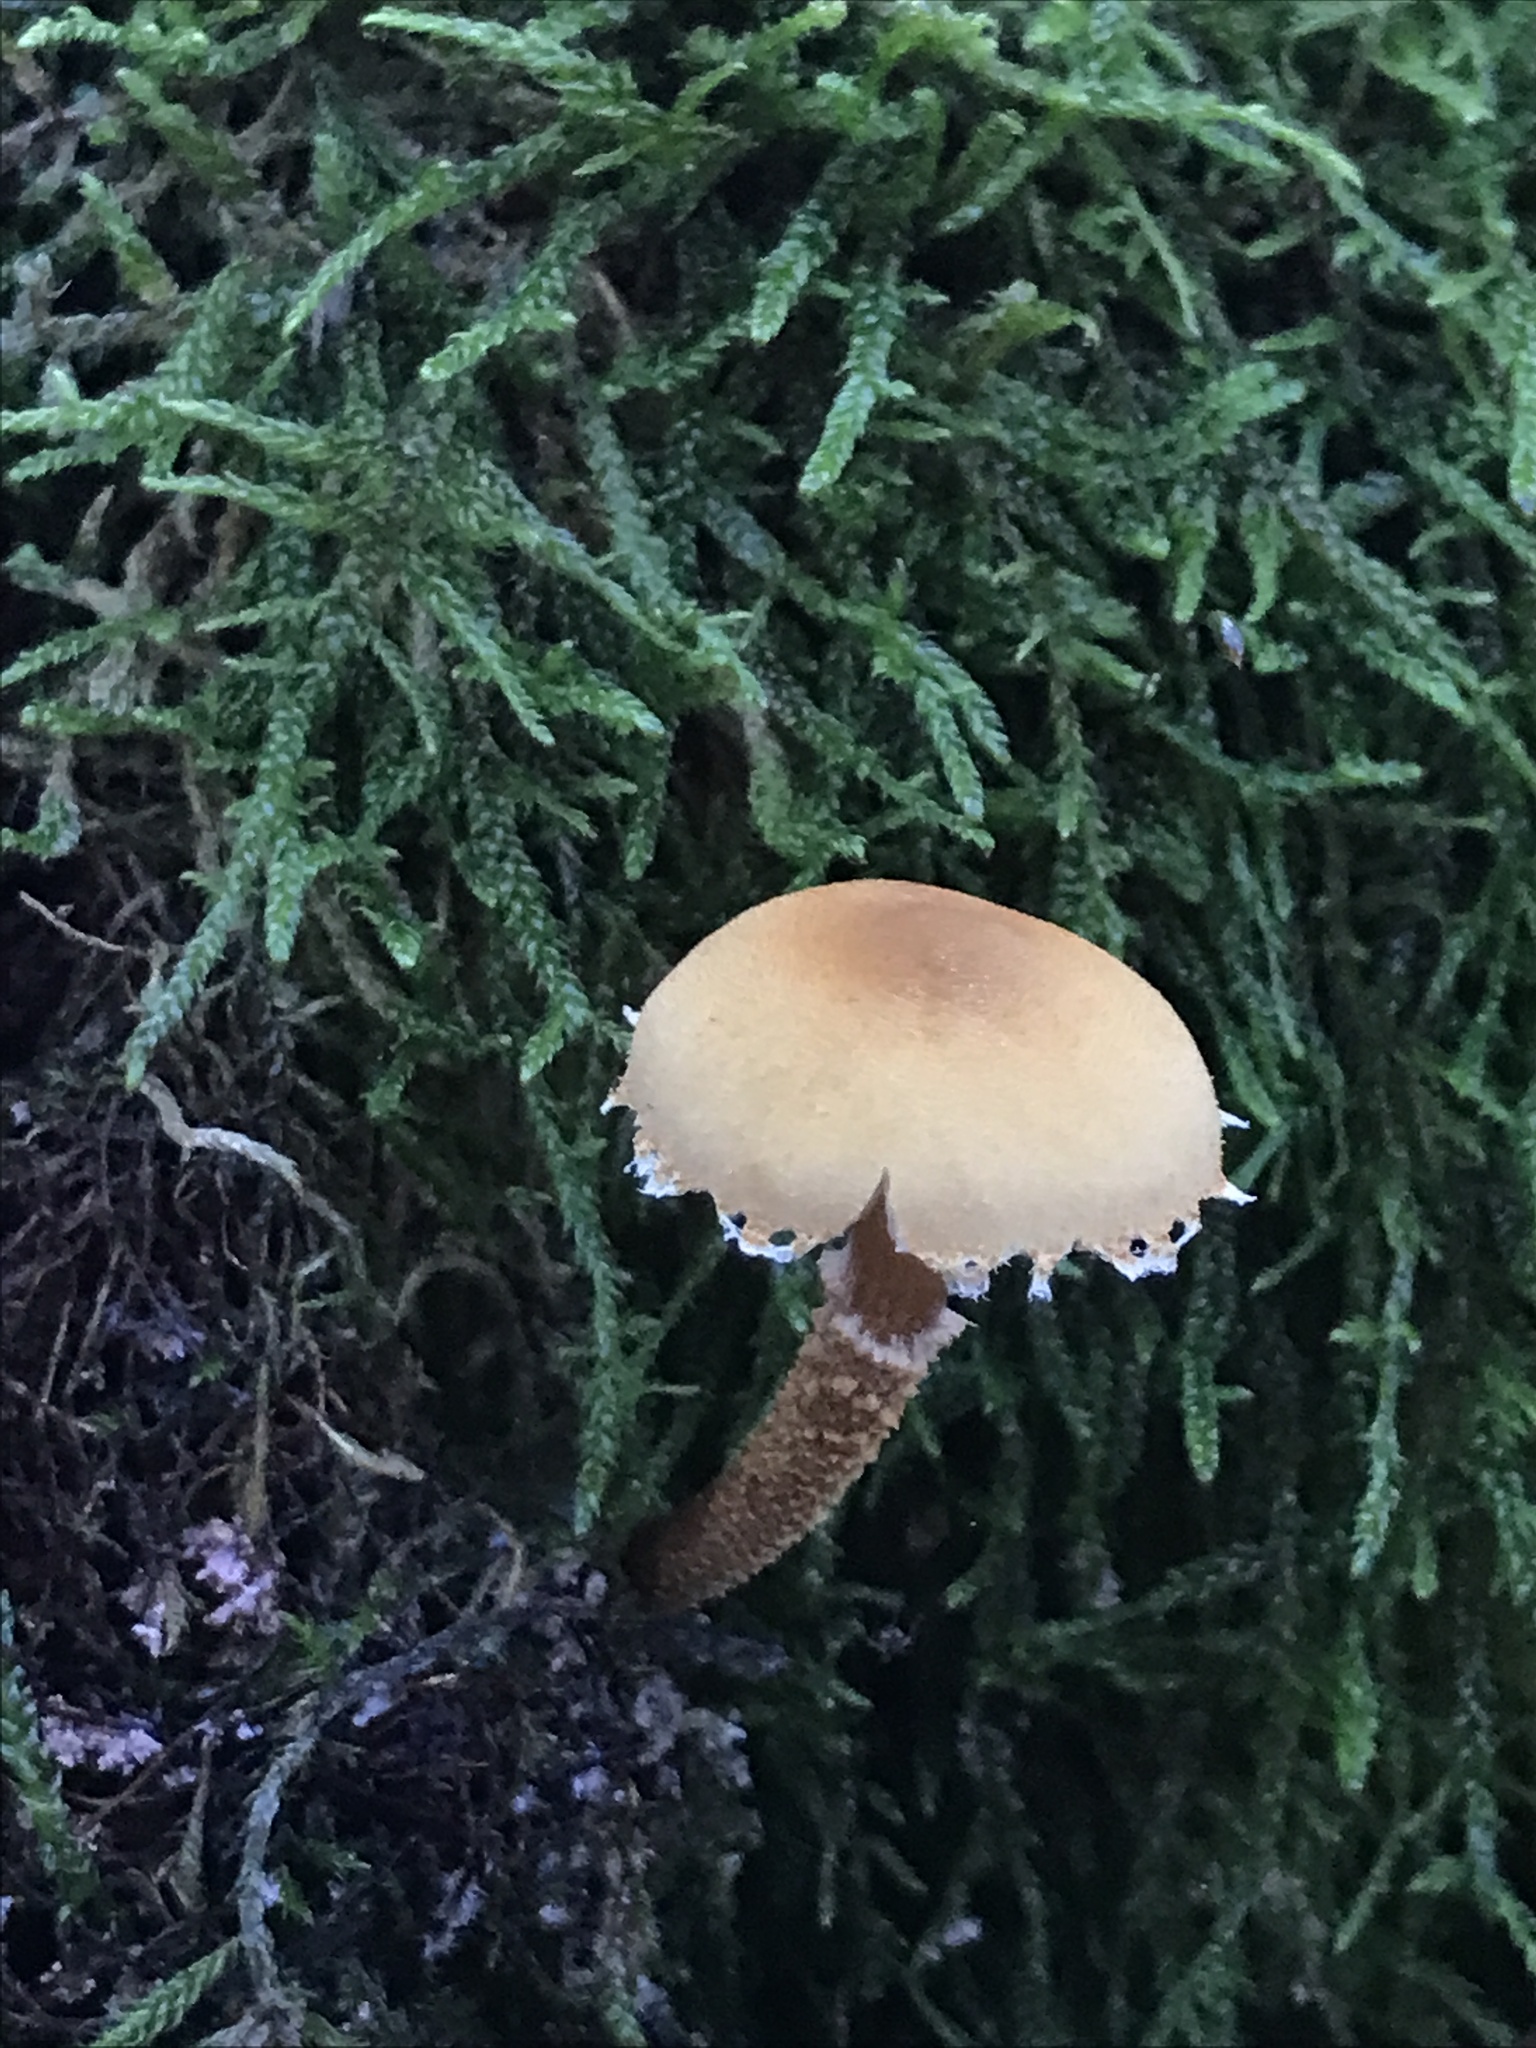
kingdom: Fungi
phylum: Basidiomycota
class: Agaricomycetes
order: Agaricales
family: Tricholomataceae
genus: Cystoderma
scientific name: Cystoderma amianthinum
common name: Earthy powdercap
